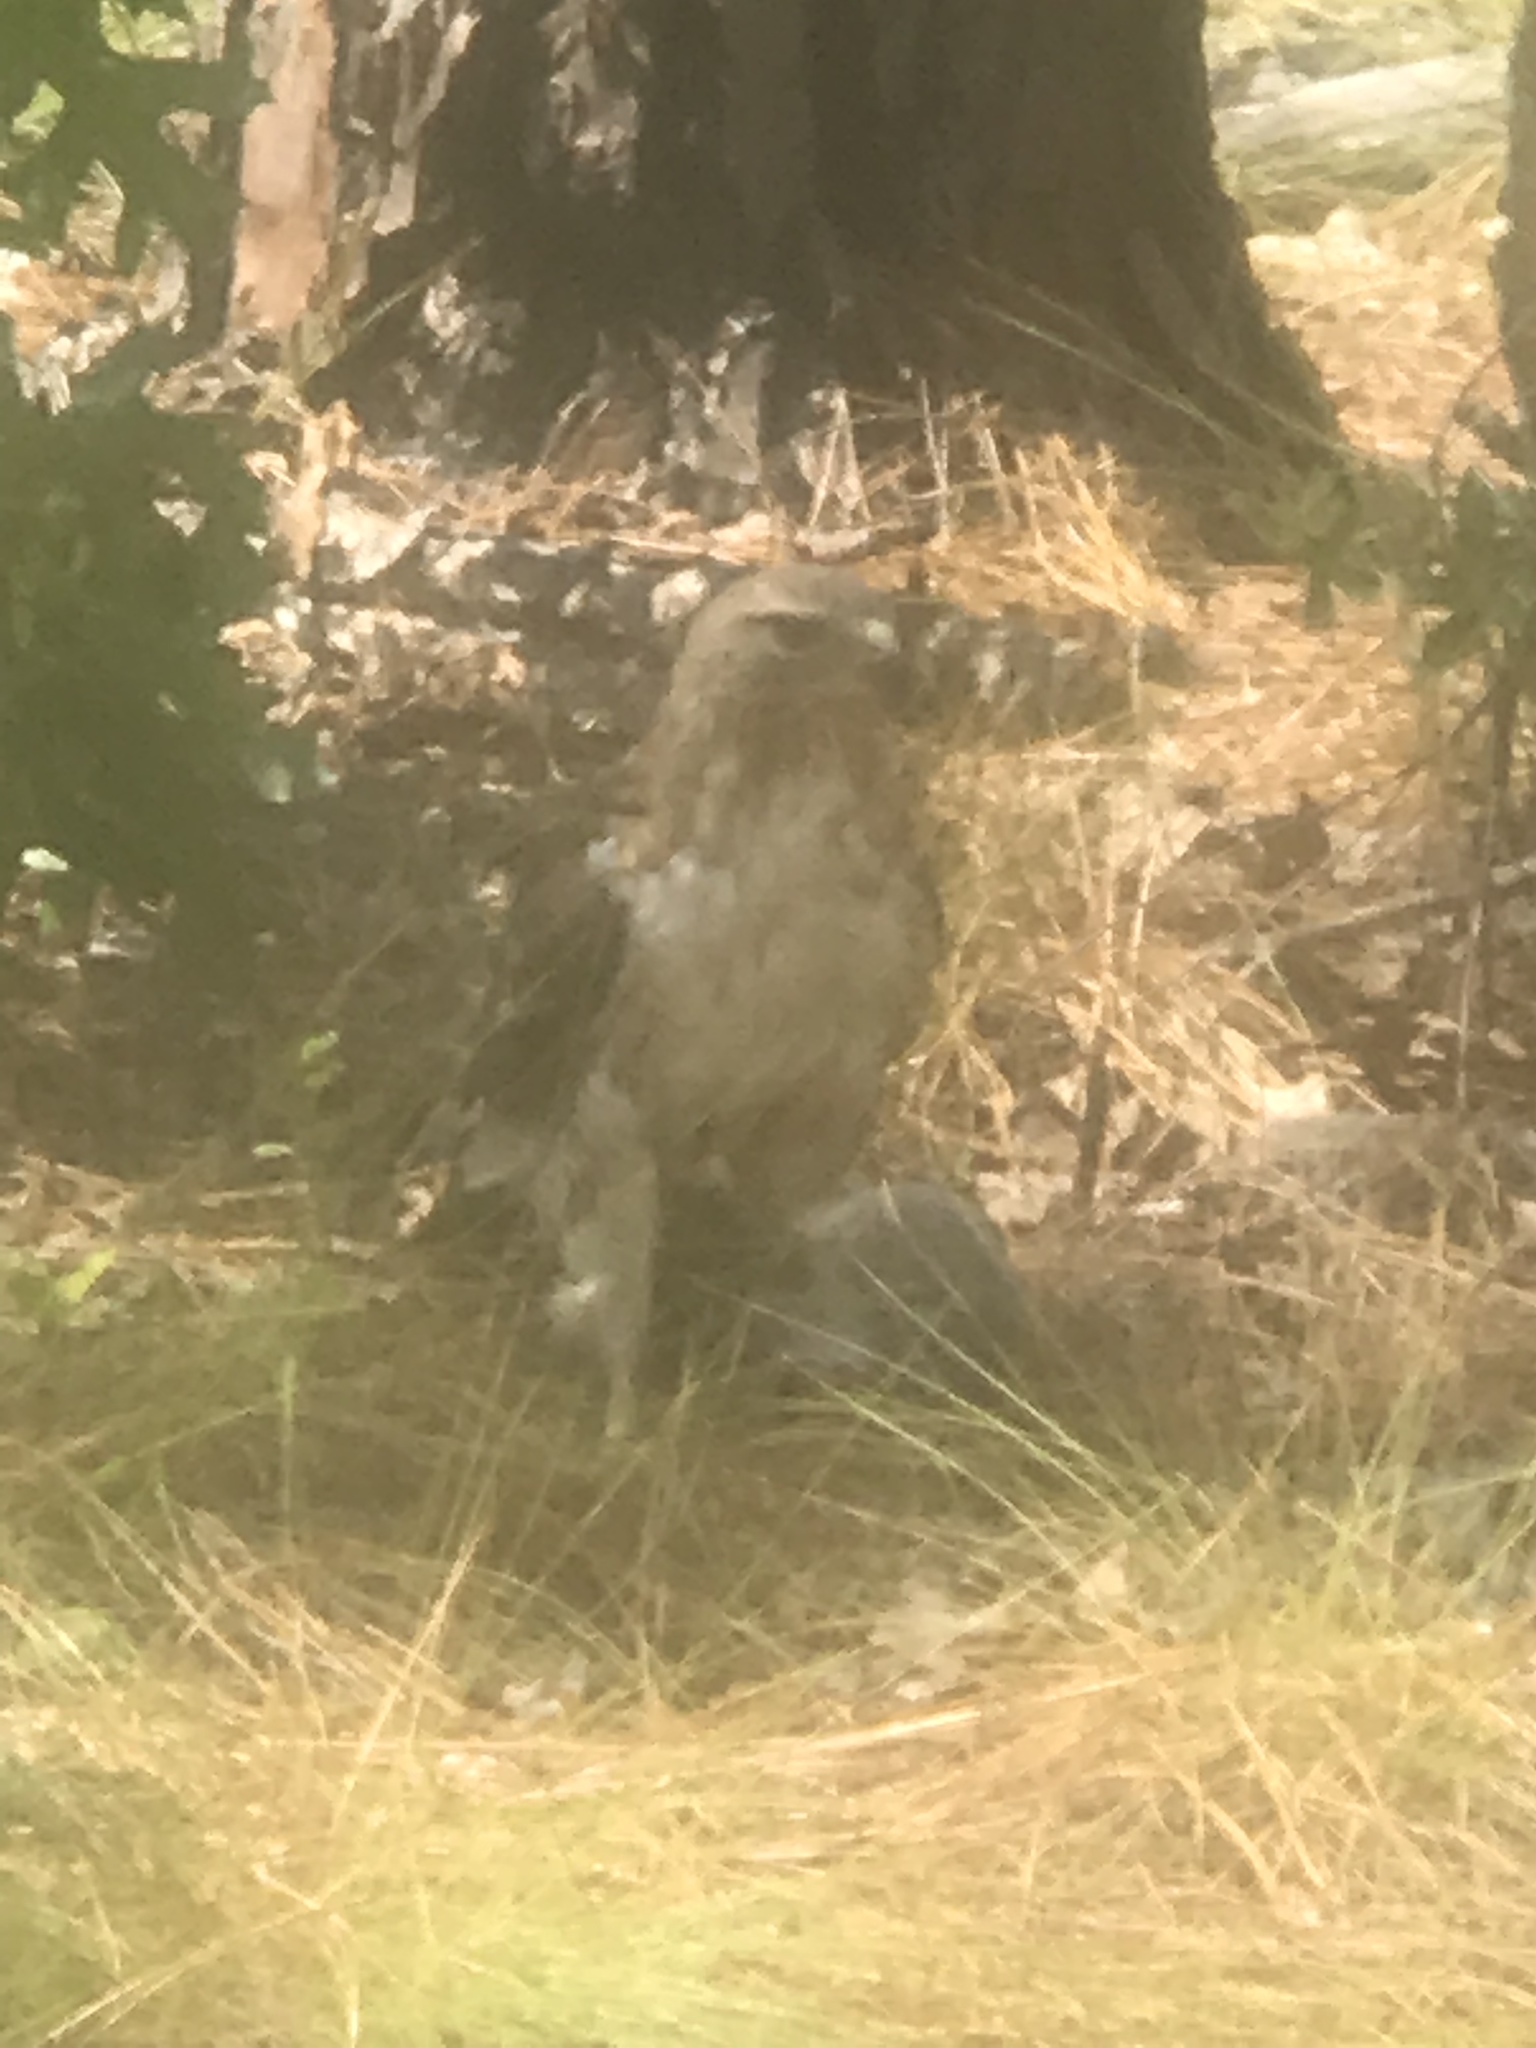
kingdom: Animalia
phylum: Chordata
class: Aves
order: Accipitriformes
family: Accipitridae
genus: Buteo
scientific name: Buteo jamaicensis
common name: Red-tailed hawk
